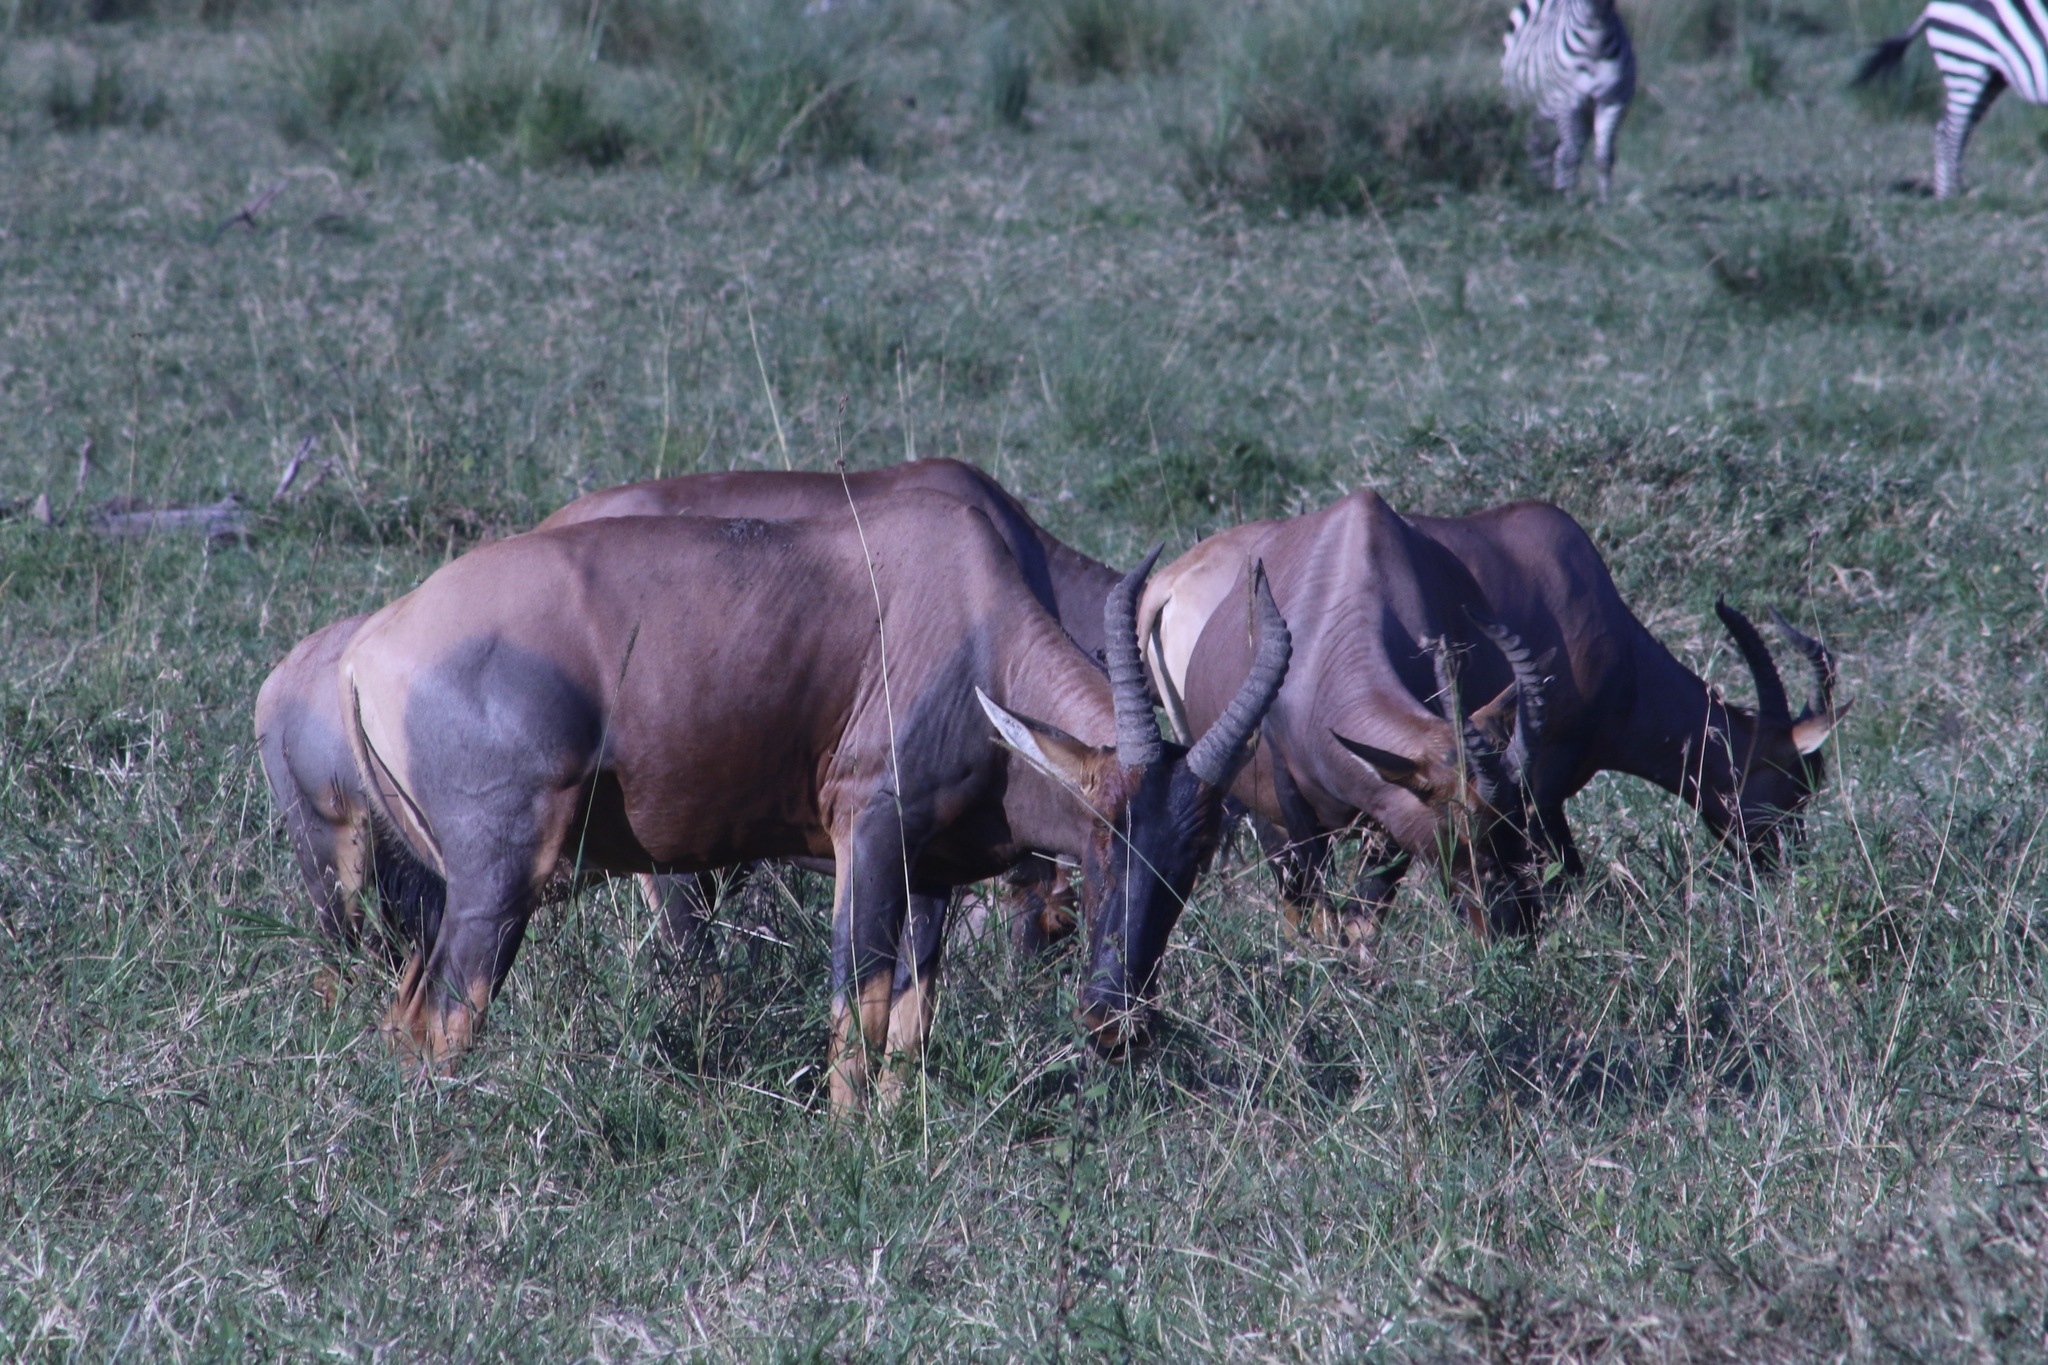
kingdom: Animalia
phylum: Chordata
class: Mammalia
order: Artiodactyla
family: Bovidae
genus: Damaliscus
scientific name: Damaliscus korrigum
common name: Topi
